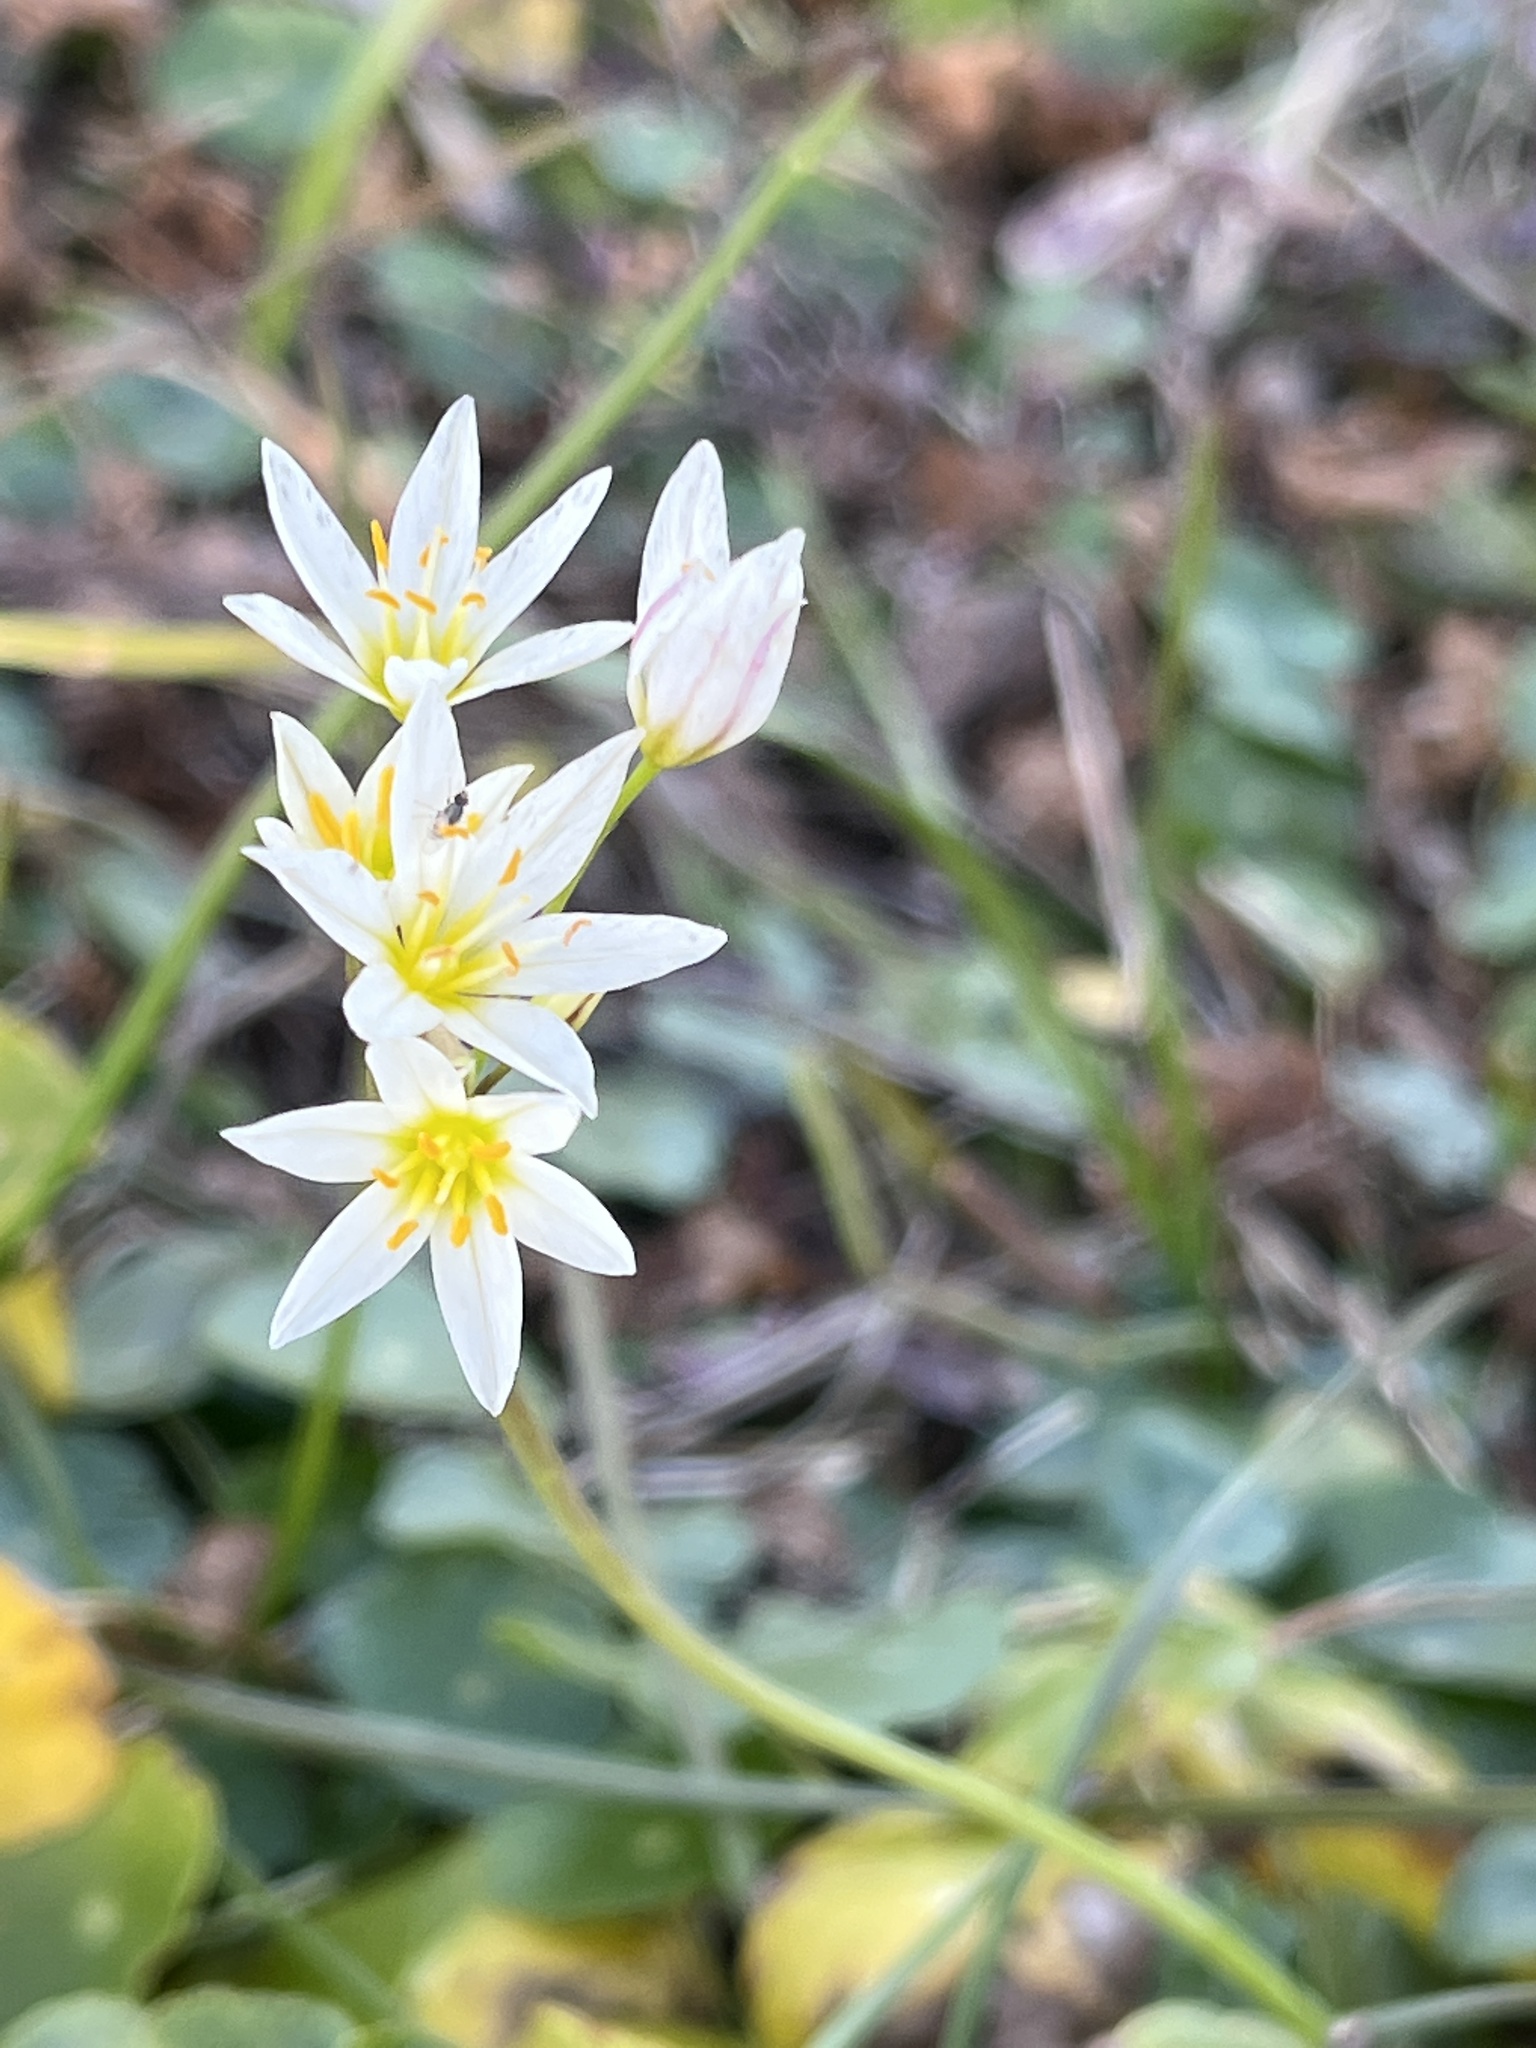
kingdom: Plantae
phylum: Tracheophyta
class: Liliopsida
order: Asparagales
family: Amaryllidaceae
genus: Nothoscordum
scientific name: Nothoscordum bivalve
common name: Crow-poison
